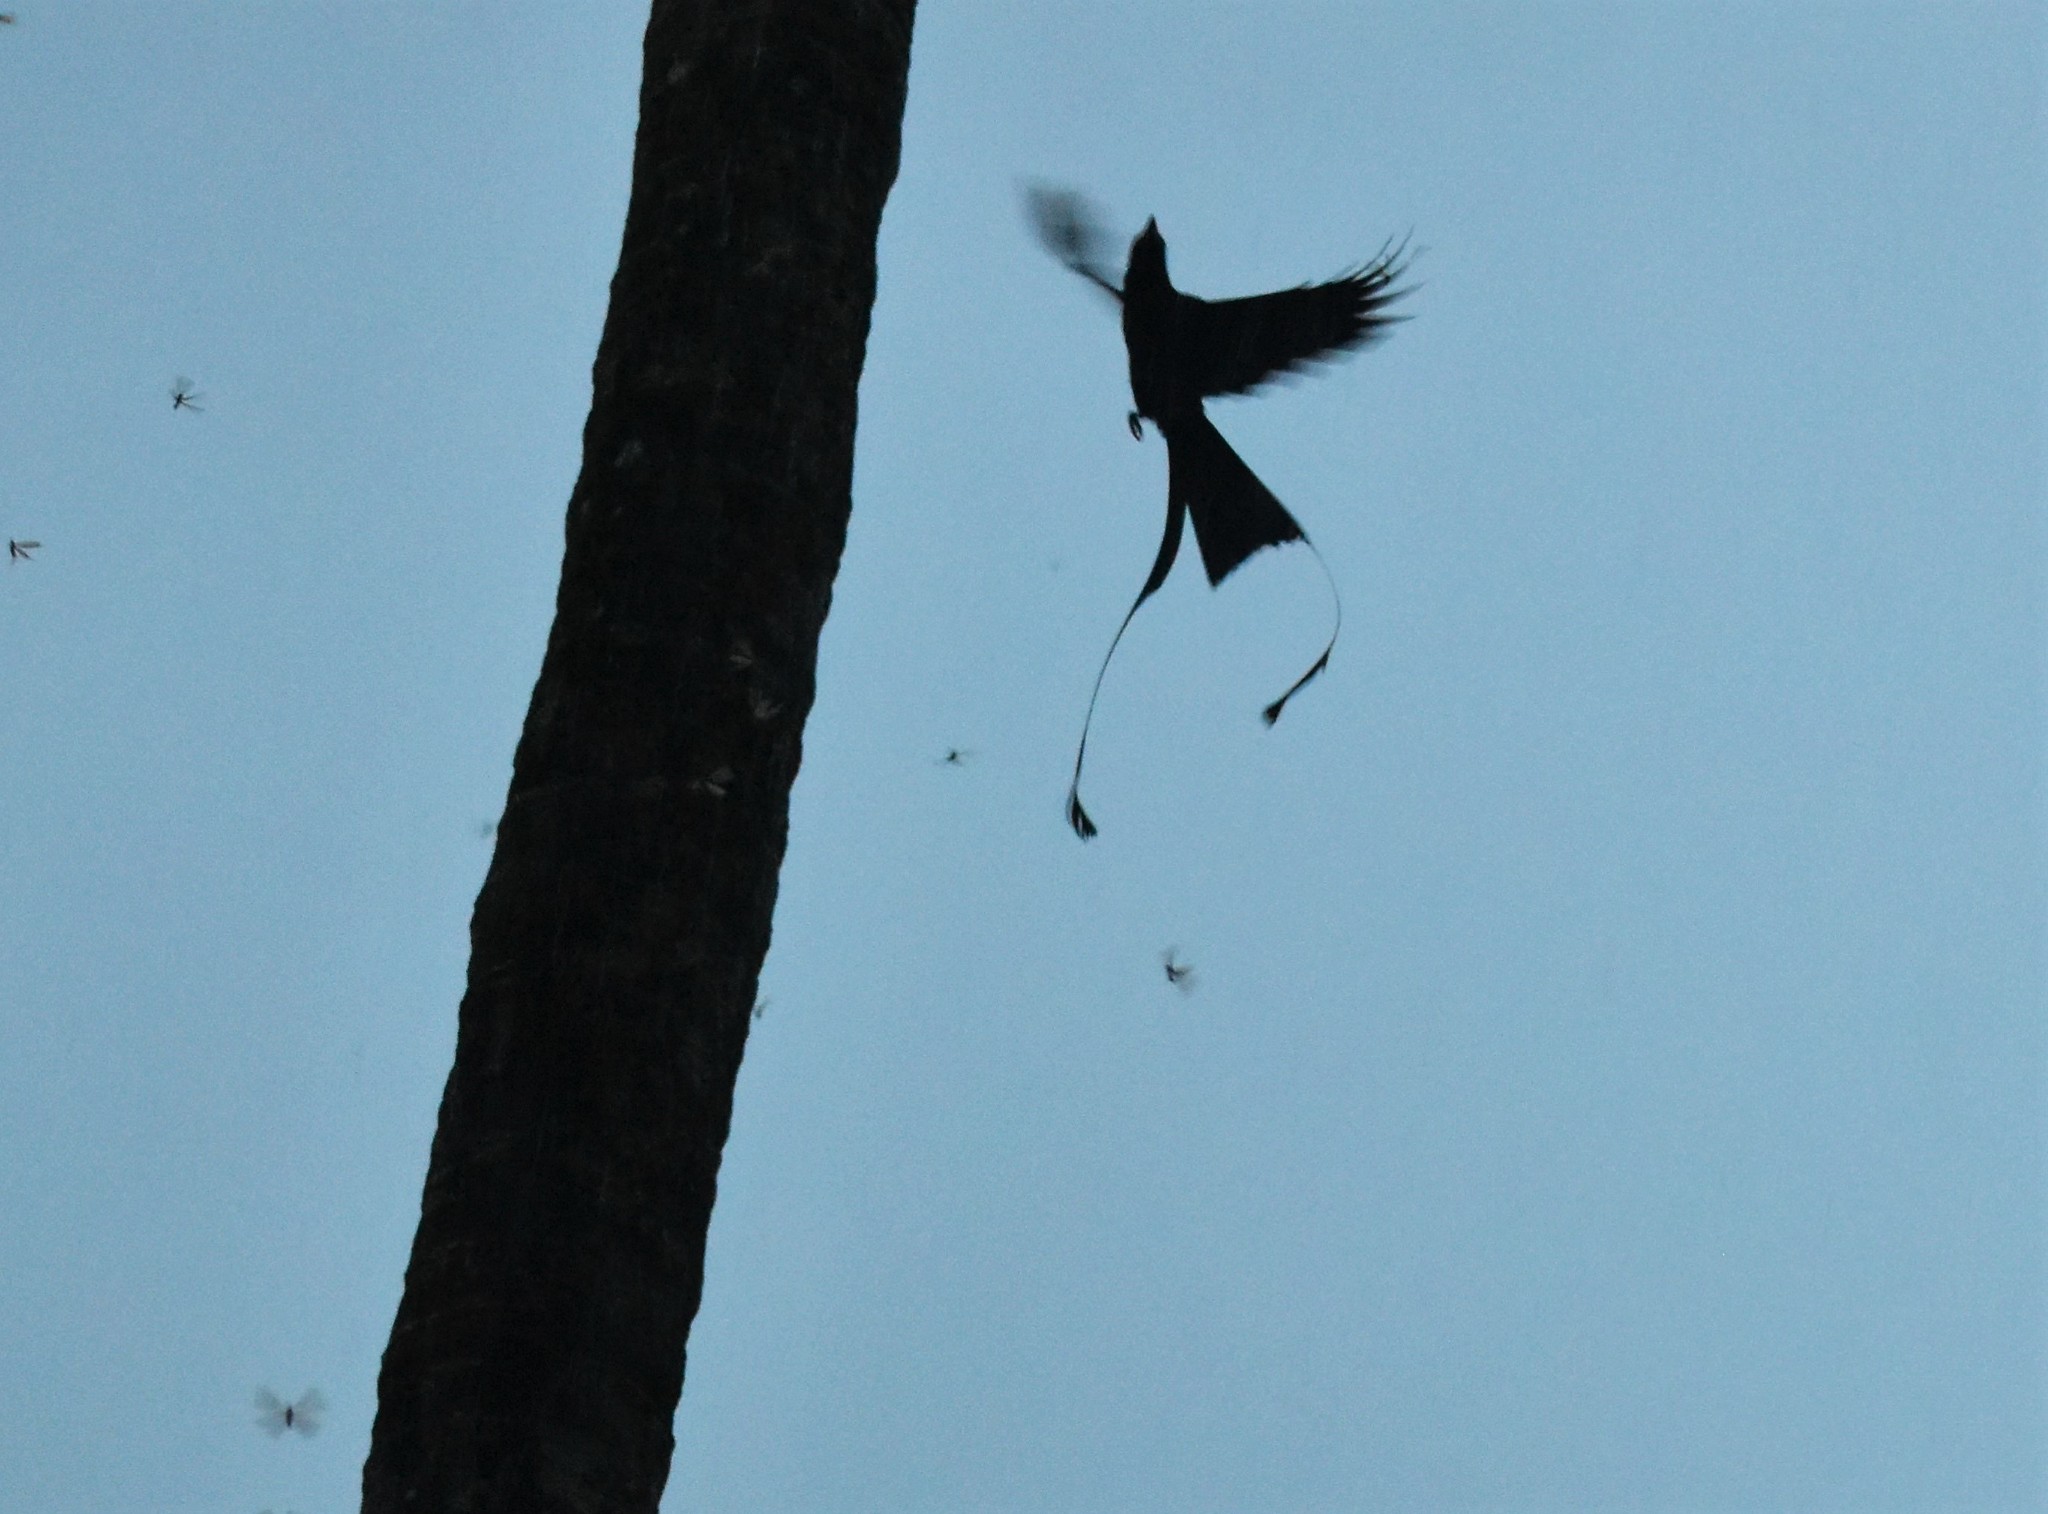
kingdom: Animalia
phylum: Chordata
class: Aves
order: Passeriformes
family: Dicruridae
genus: Dicrurus
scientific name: Dicrurus paradiseus
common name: Greater racket-tailed drongo
